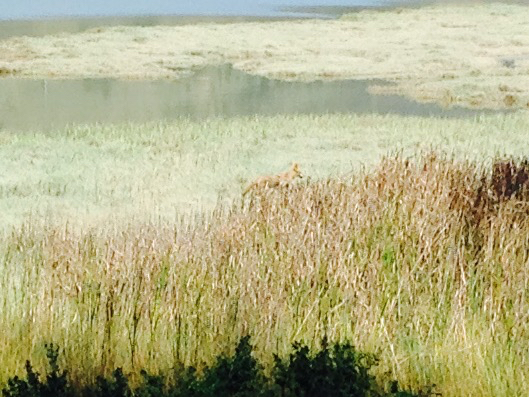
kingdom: Animalia
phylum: Chordata
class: Mammalia
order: Carnivora
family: Canidae
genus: Canis
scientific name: Canis latrans
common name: Coyote
